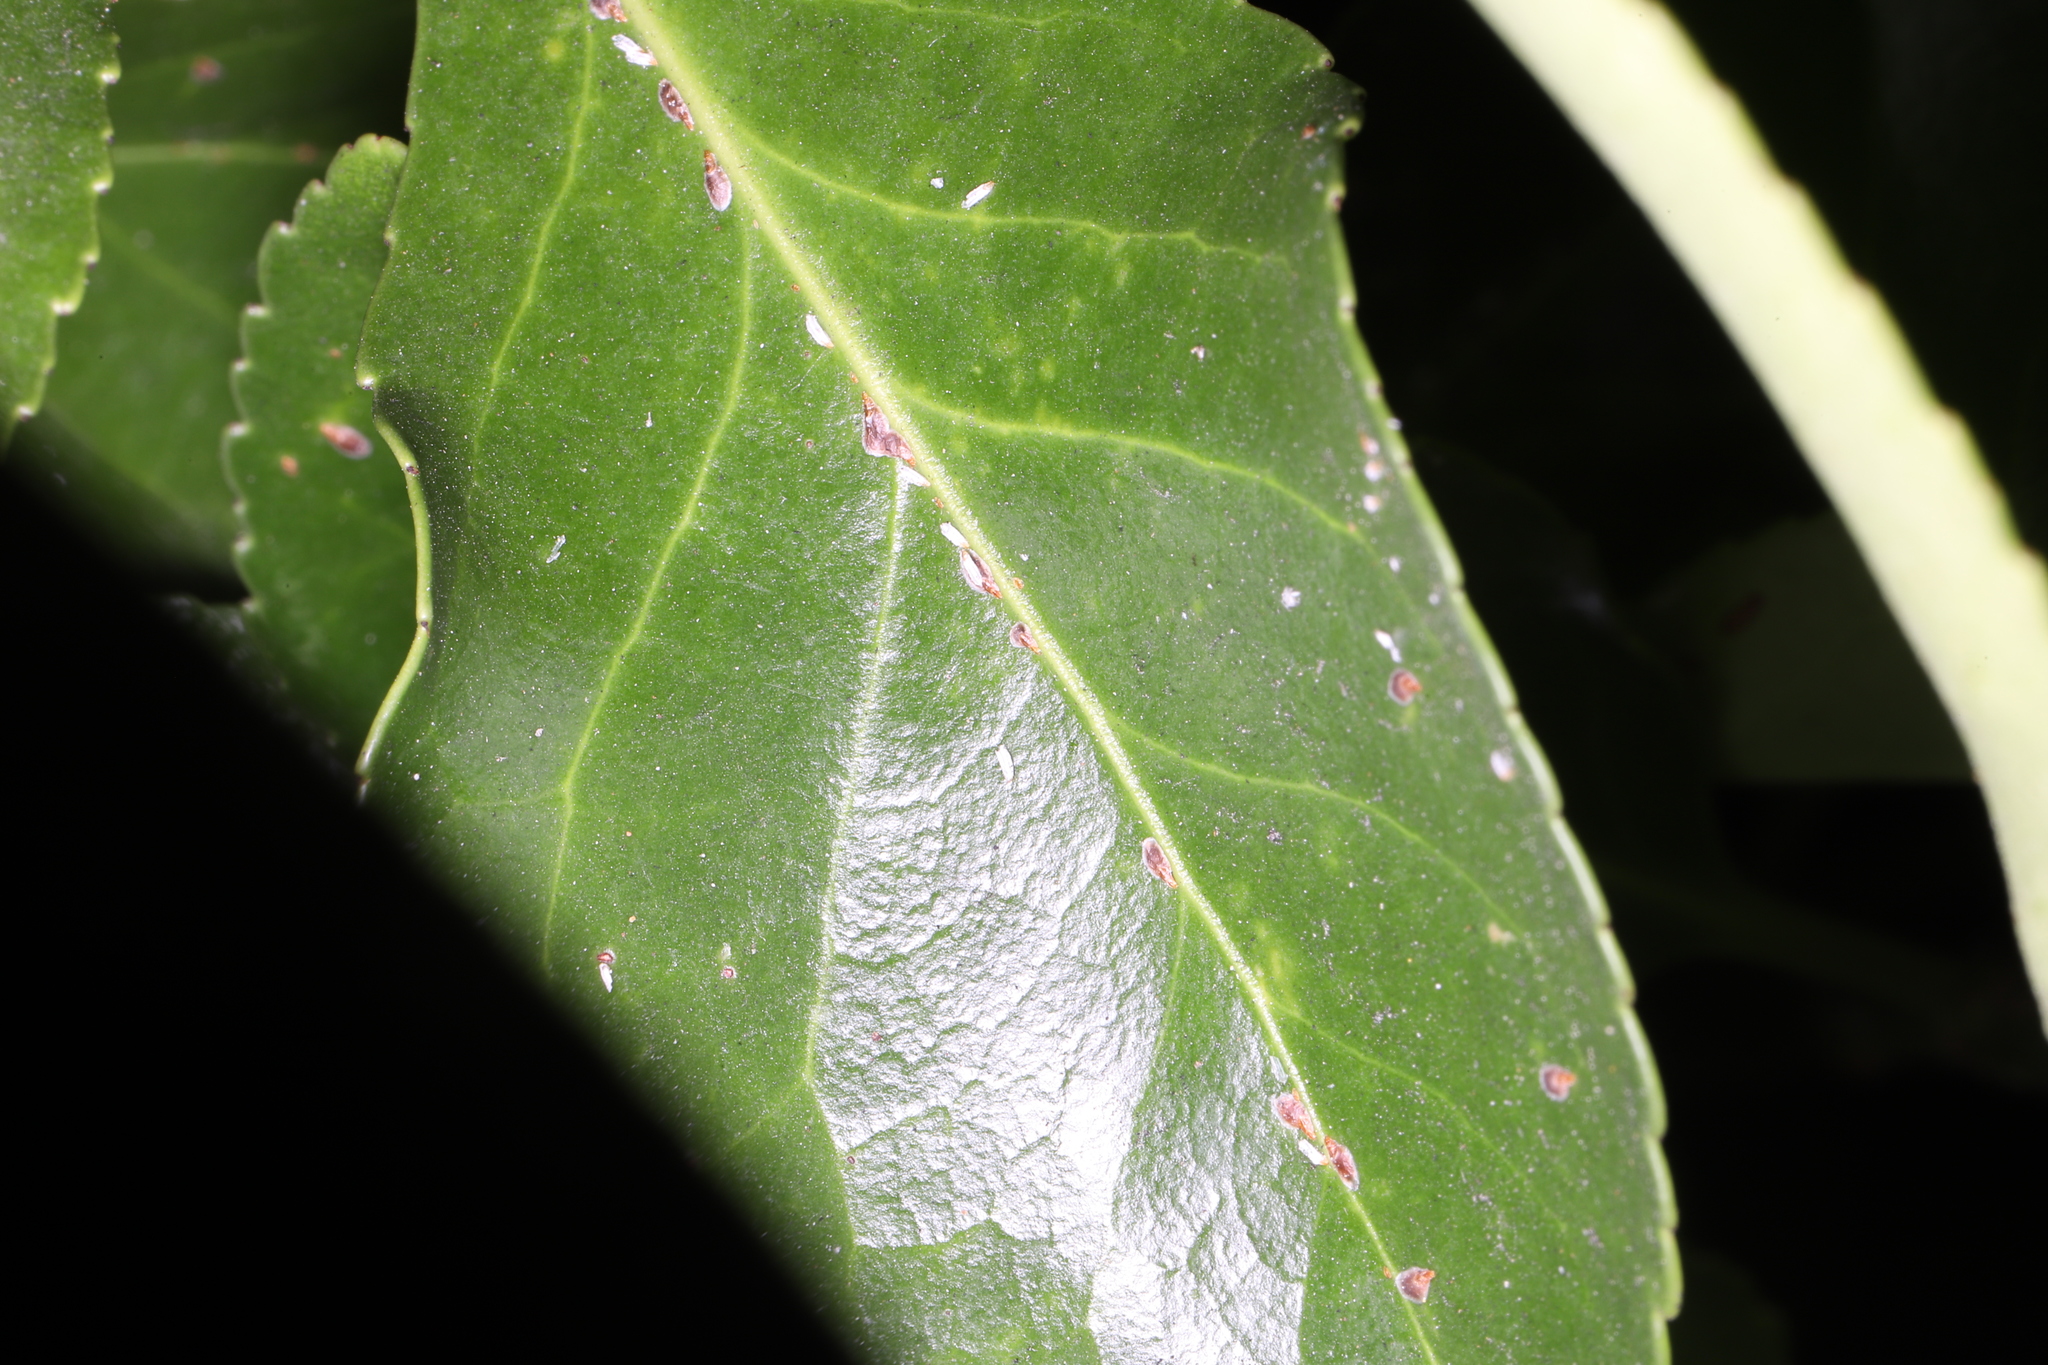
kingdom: Animalia
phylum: Arthropoda
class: Insecta
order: Hemiptera
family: Diaspididae
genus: Unaspis
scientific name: Unaspis euonymi
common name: Euonymus scale
